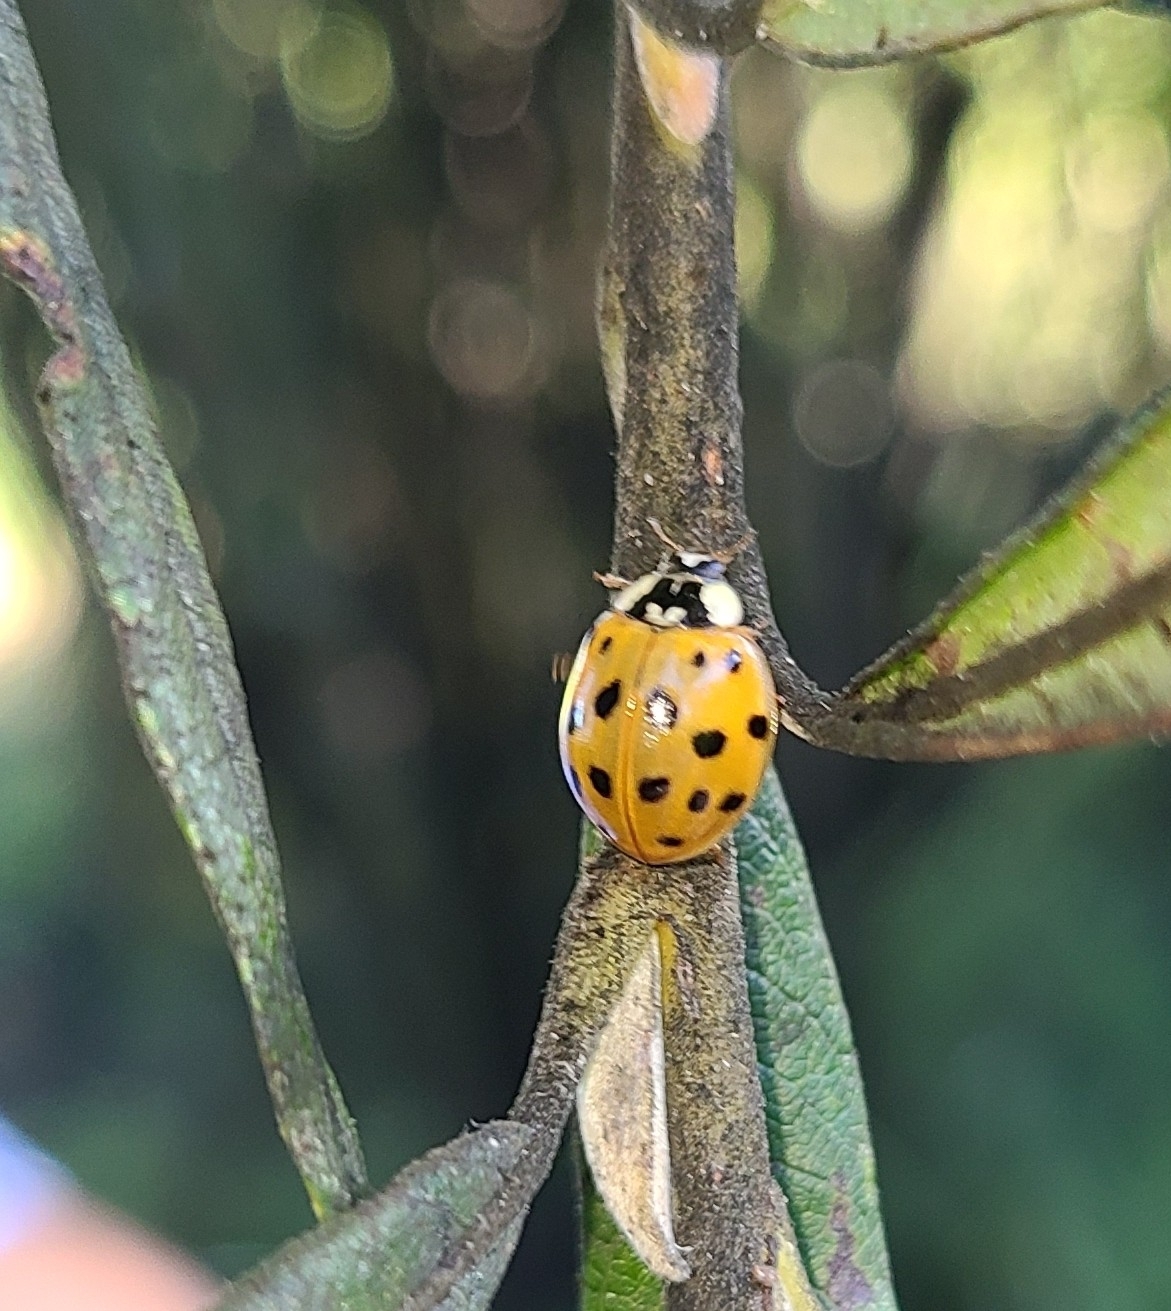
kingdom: Animalia
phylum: Arthropoda
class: Insecta
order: Coleoptera
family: Coccinellidae
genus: Harmonia
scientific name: Harmonia axyridis
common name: Harlequin ladybird
